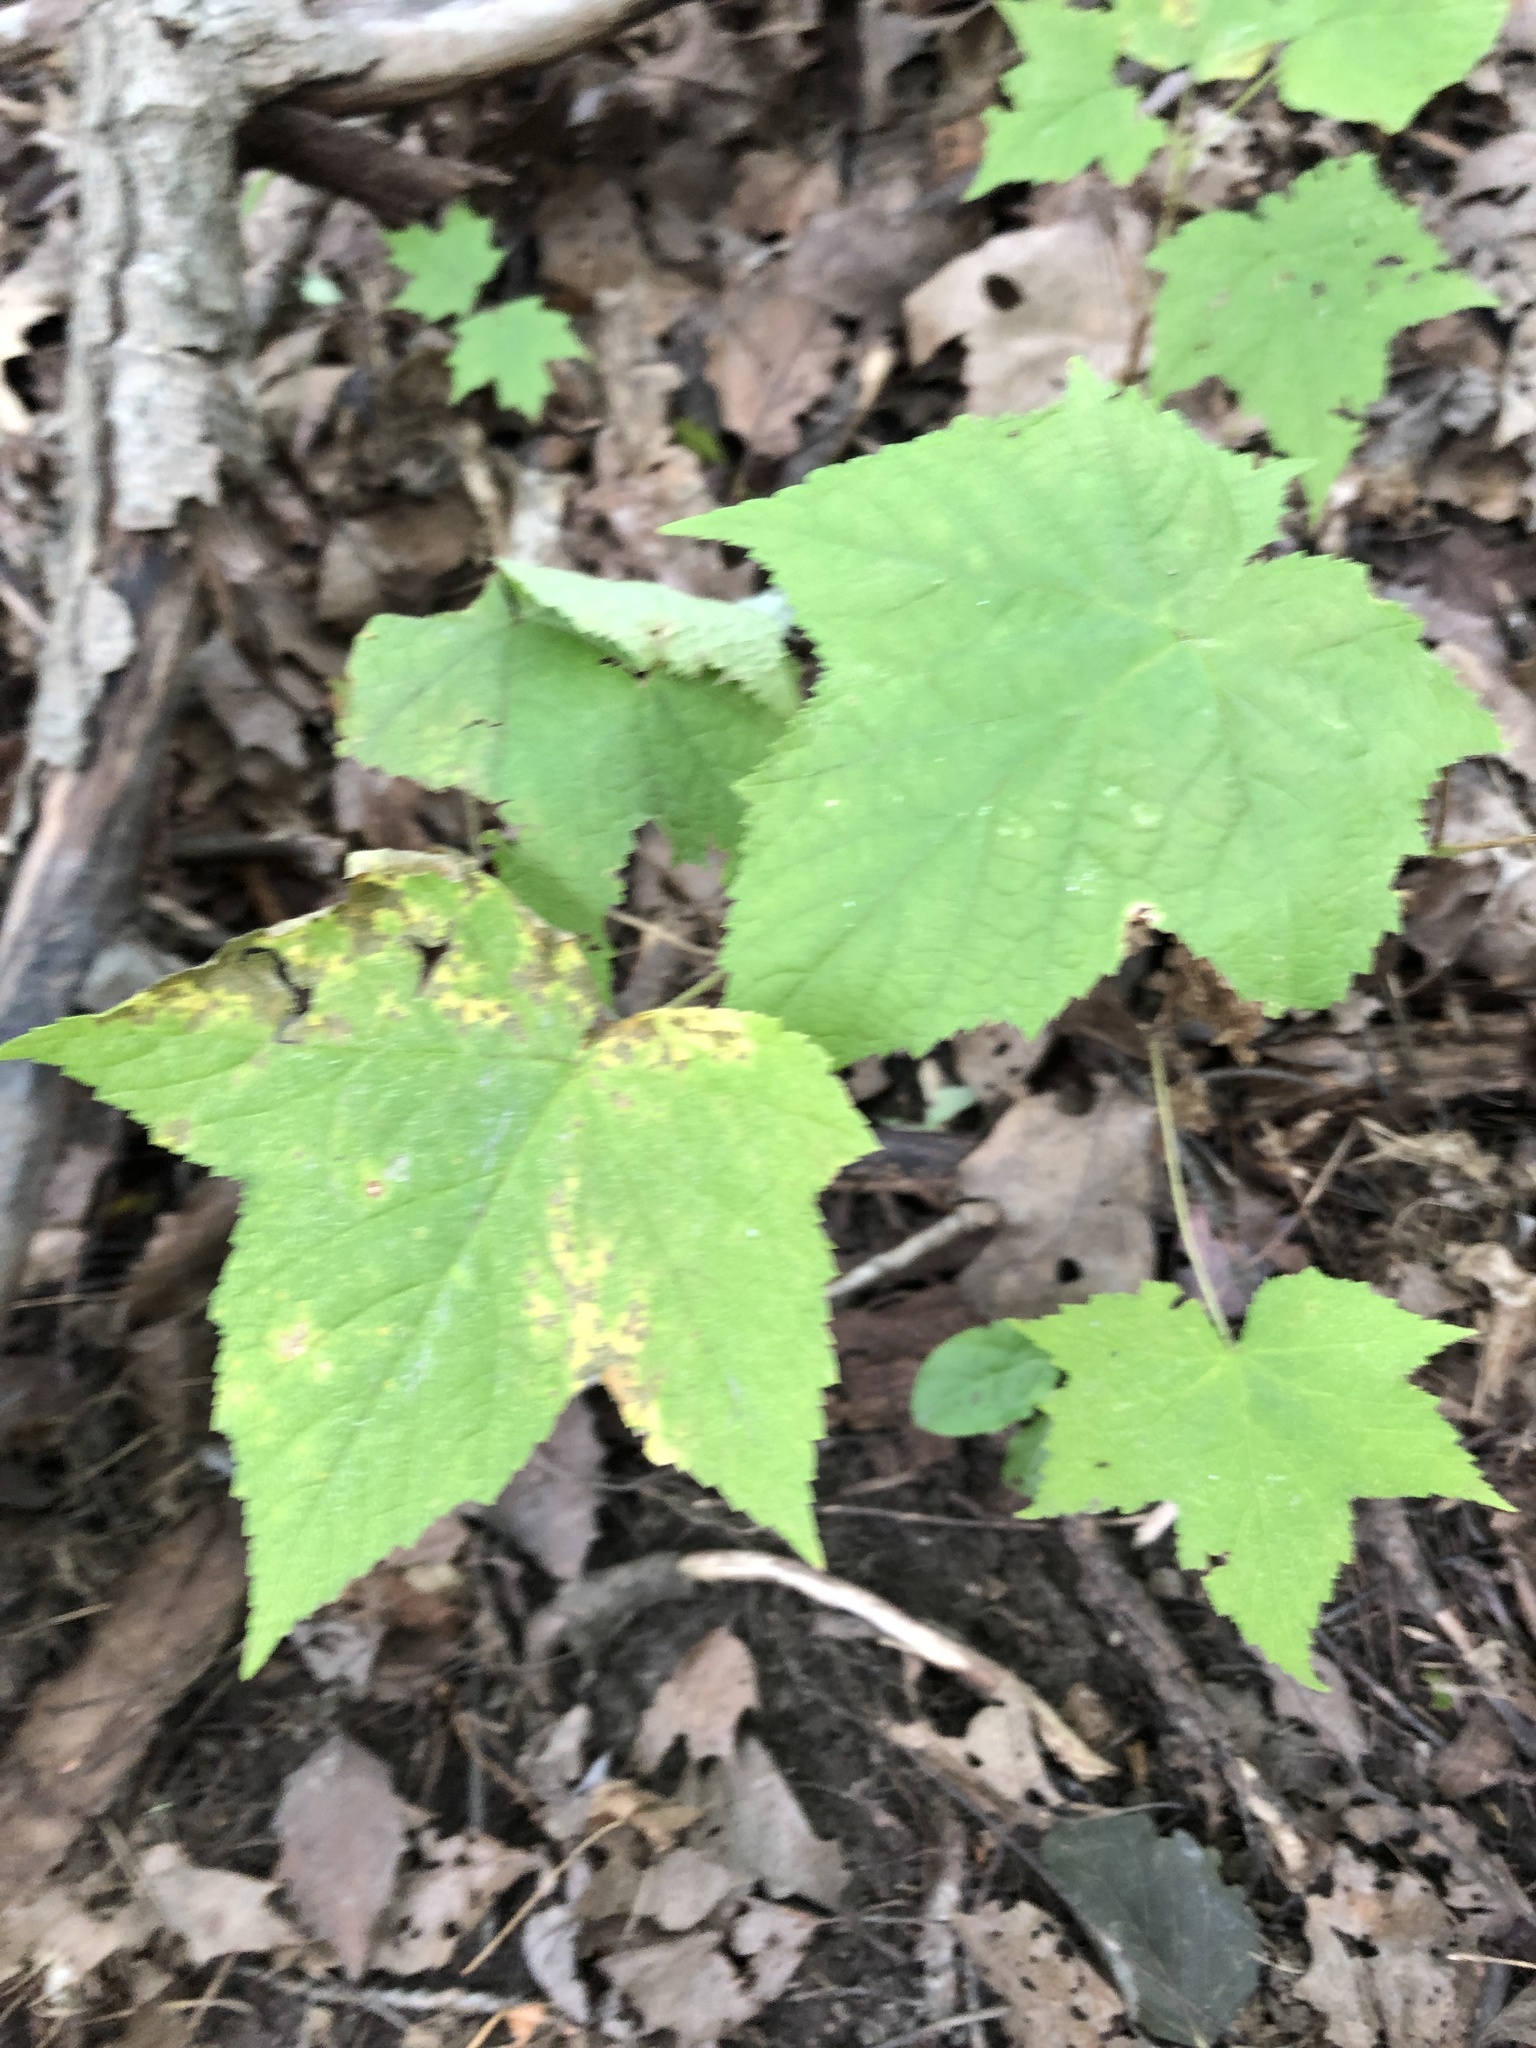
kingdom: Plantae
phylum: Tracheophyta
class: Magnoliopsida
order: Rosales
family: Rosaceae
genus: Rubus
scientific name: Rubus odoratus
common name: Purple-flowered raspberry
